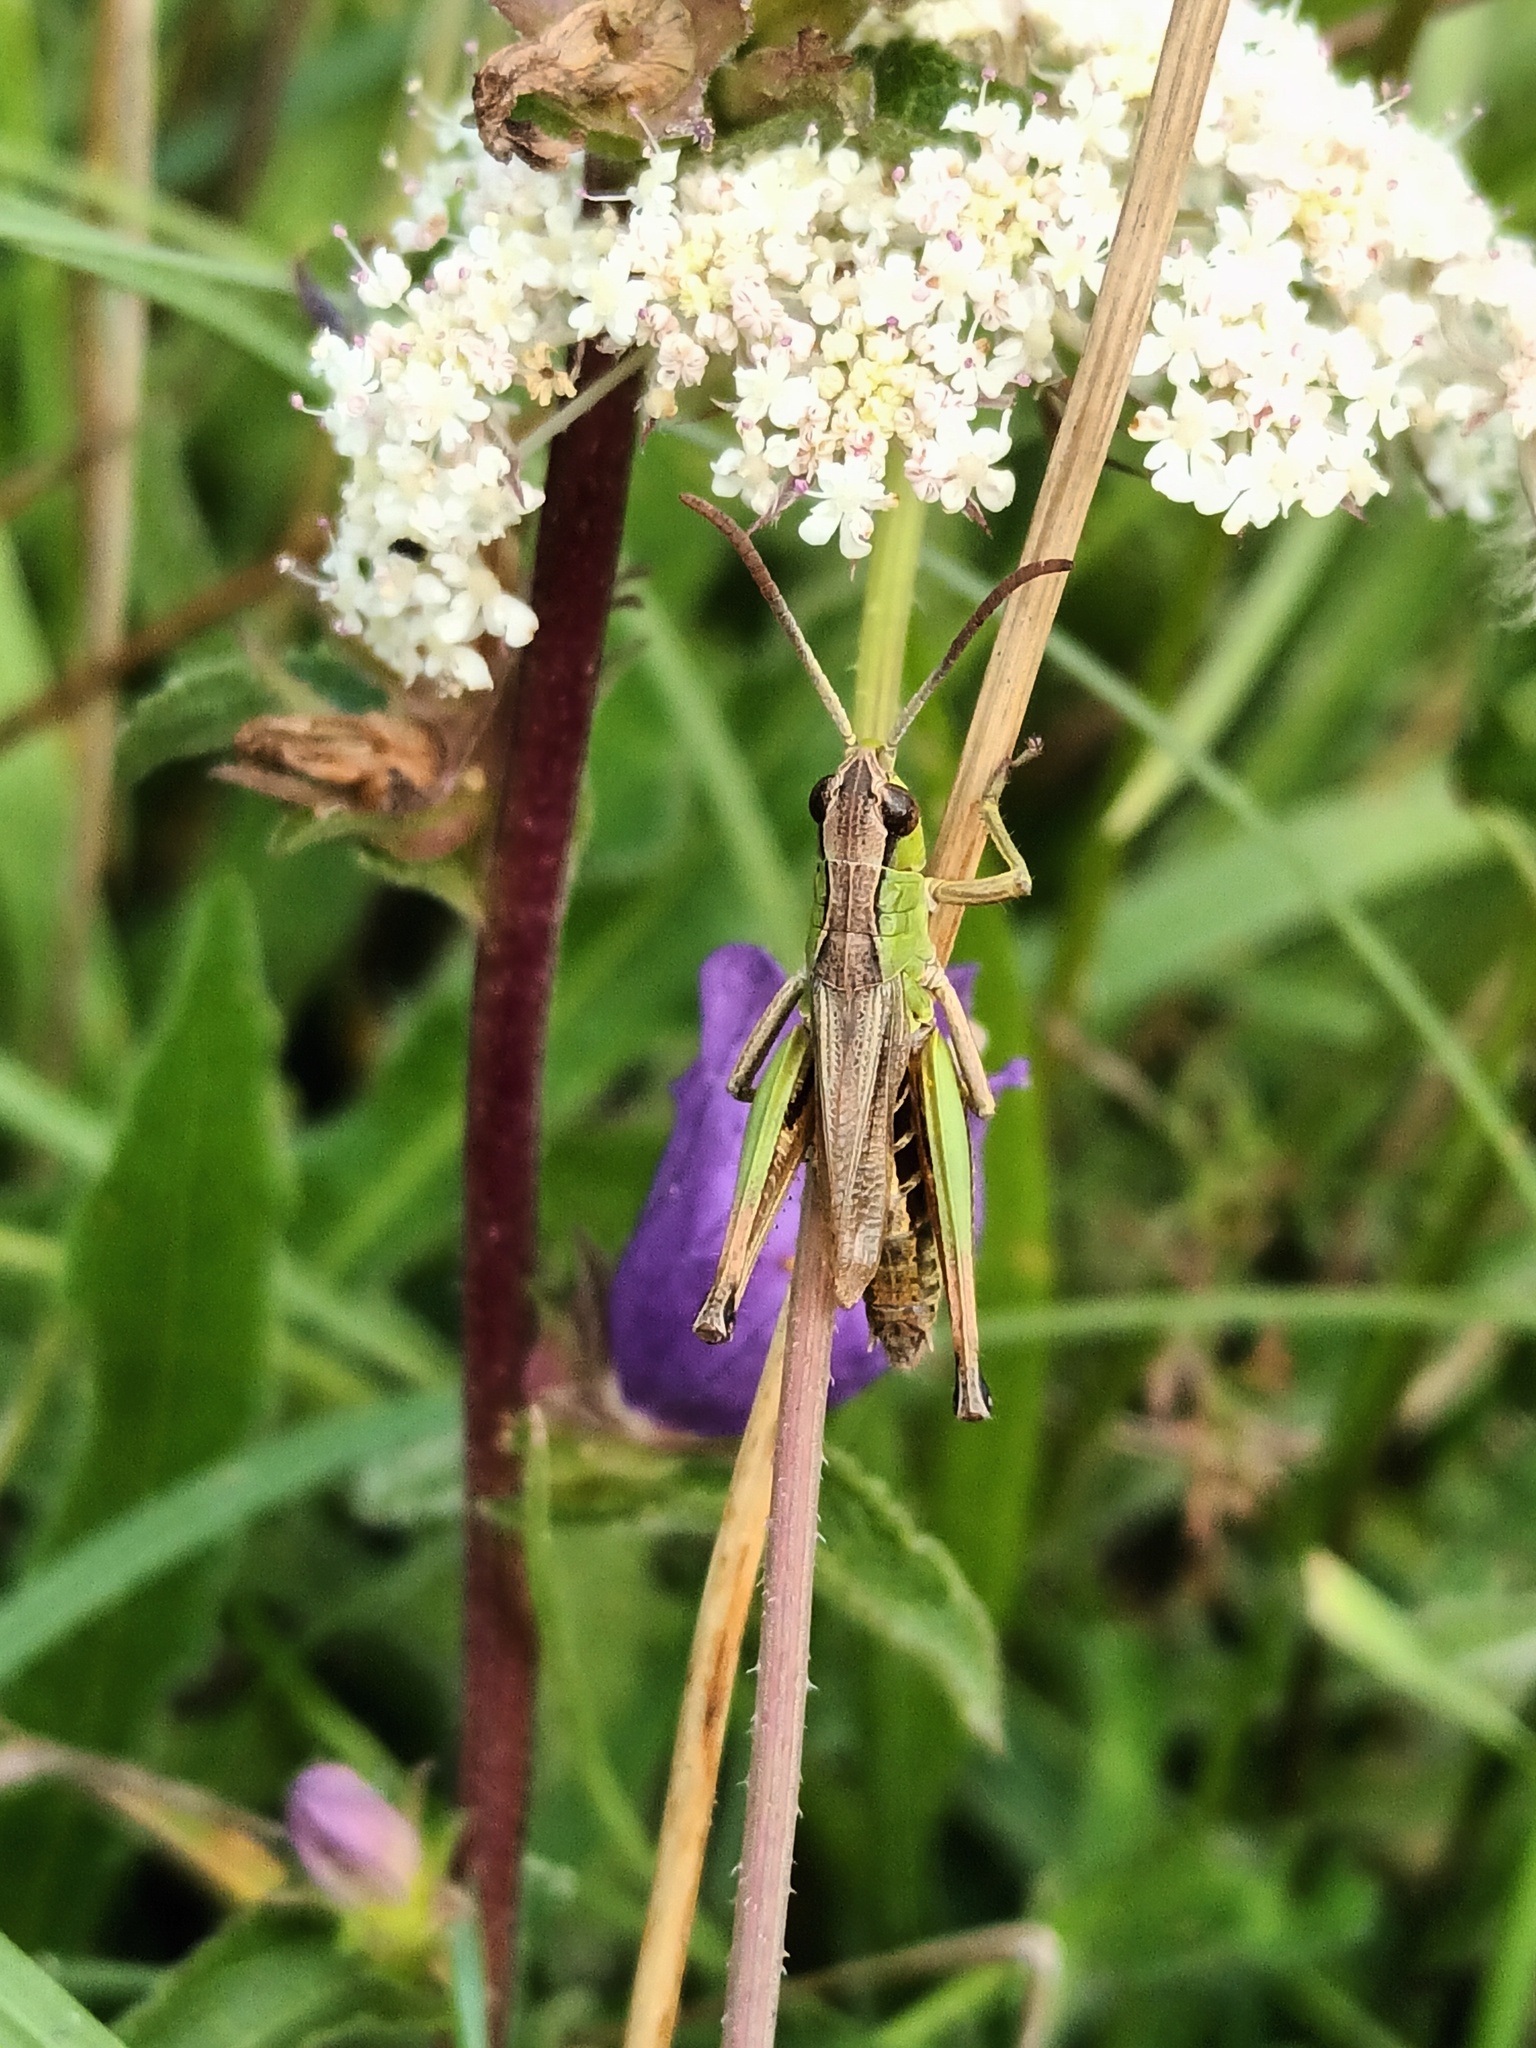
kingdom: Animalia
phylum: Arthropoda
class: Insecta
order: Orthoptera
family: Acrididae
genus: Pseudochorthippus
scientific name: Pseudochorthippus parallelus
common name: Meadow grasshopper
